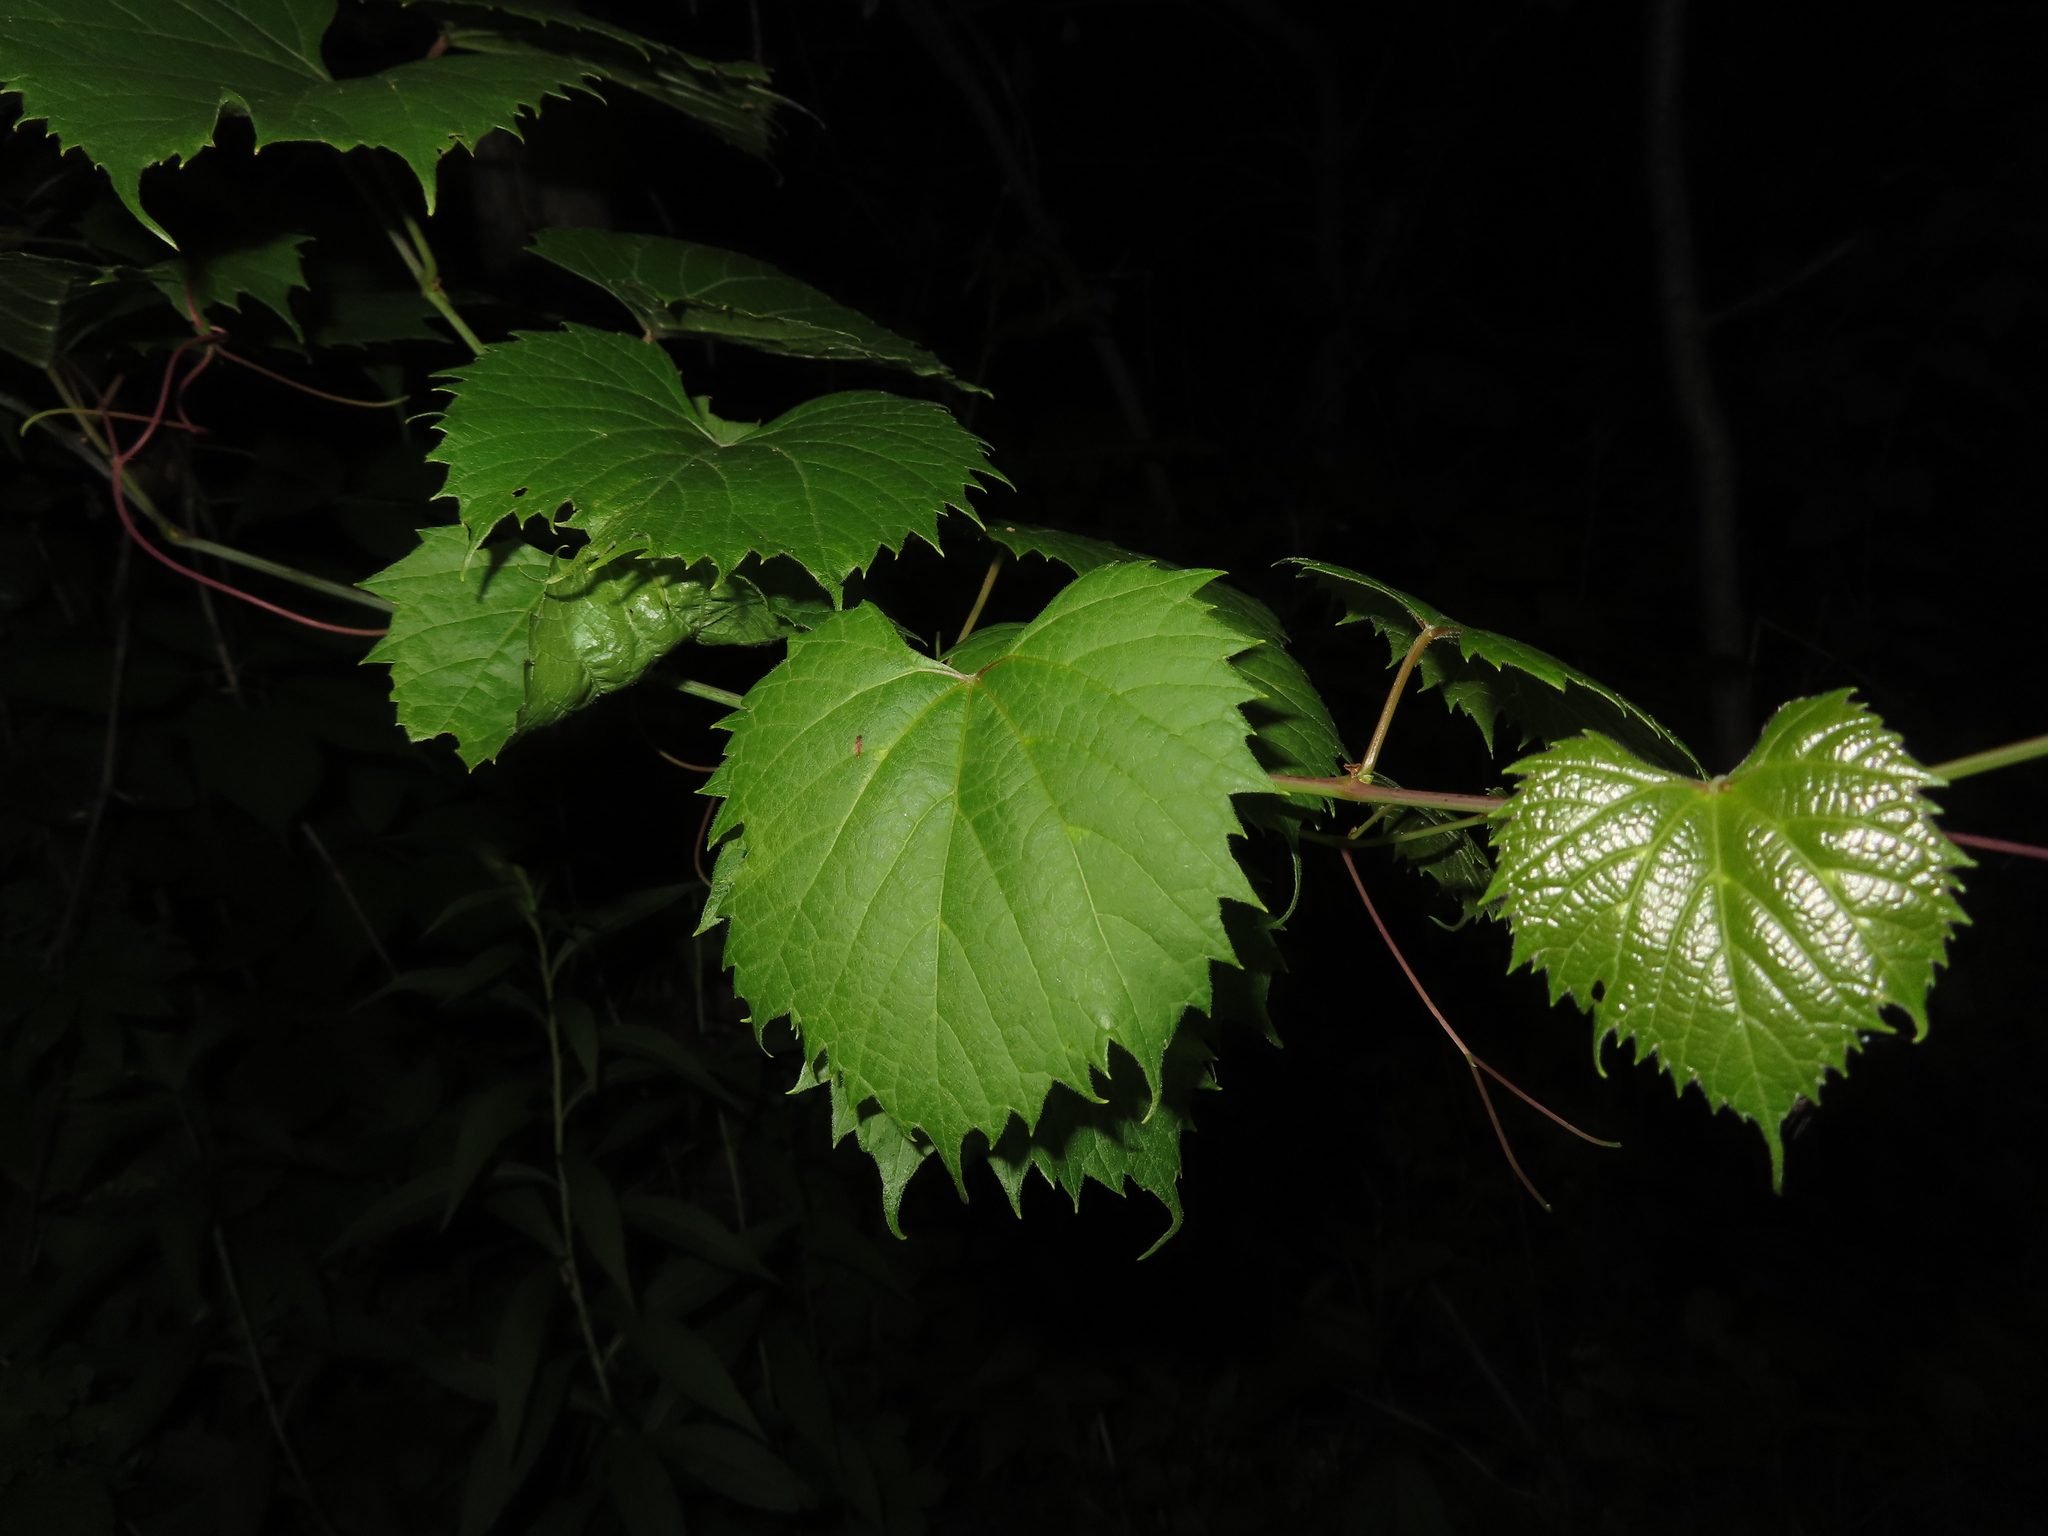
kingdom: Plantae
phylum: Tracheophyta
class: Magnoliopsida
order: Vitales
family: Vitaceae
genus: Vitis
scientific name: Vitis riparia
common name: Frost grape
